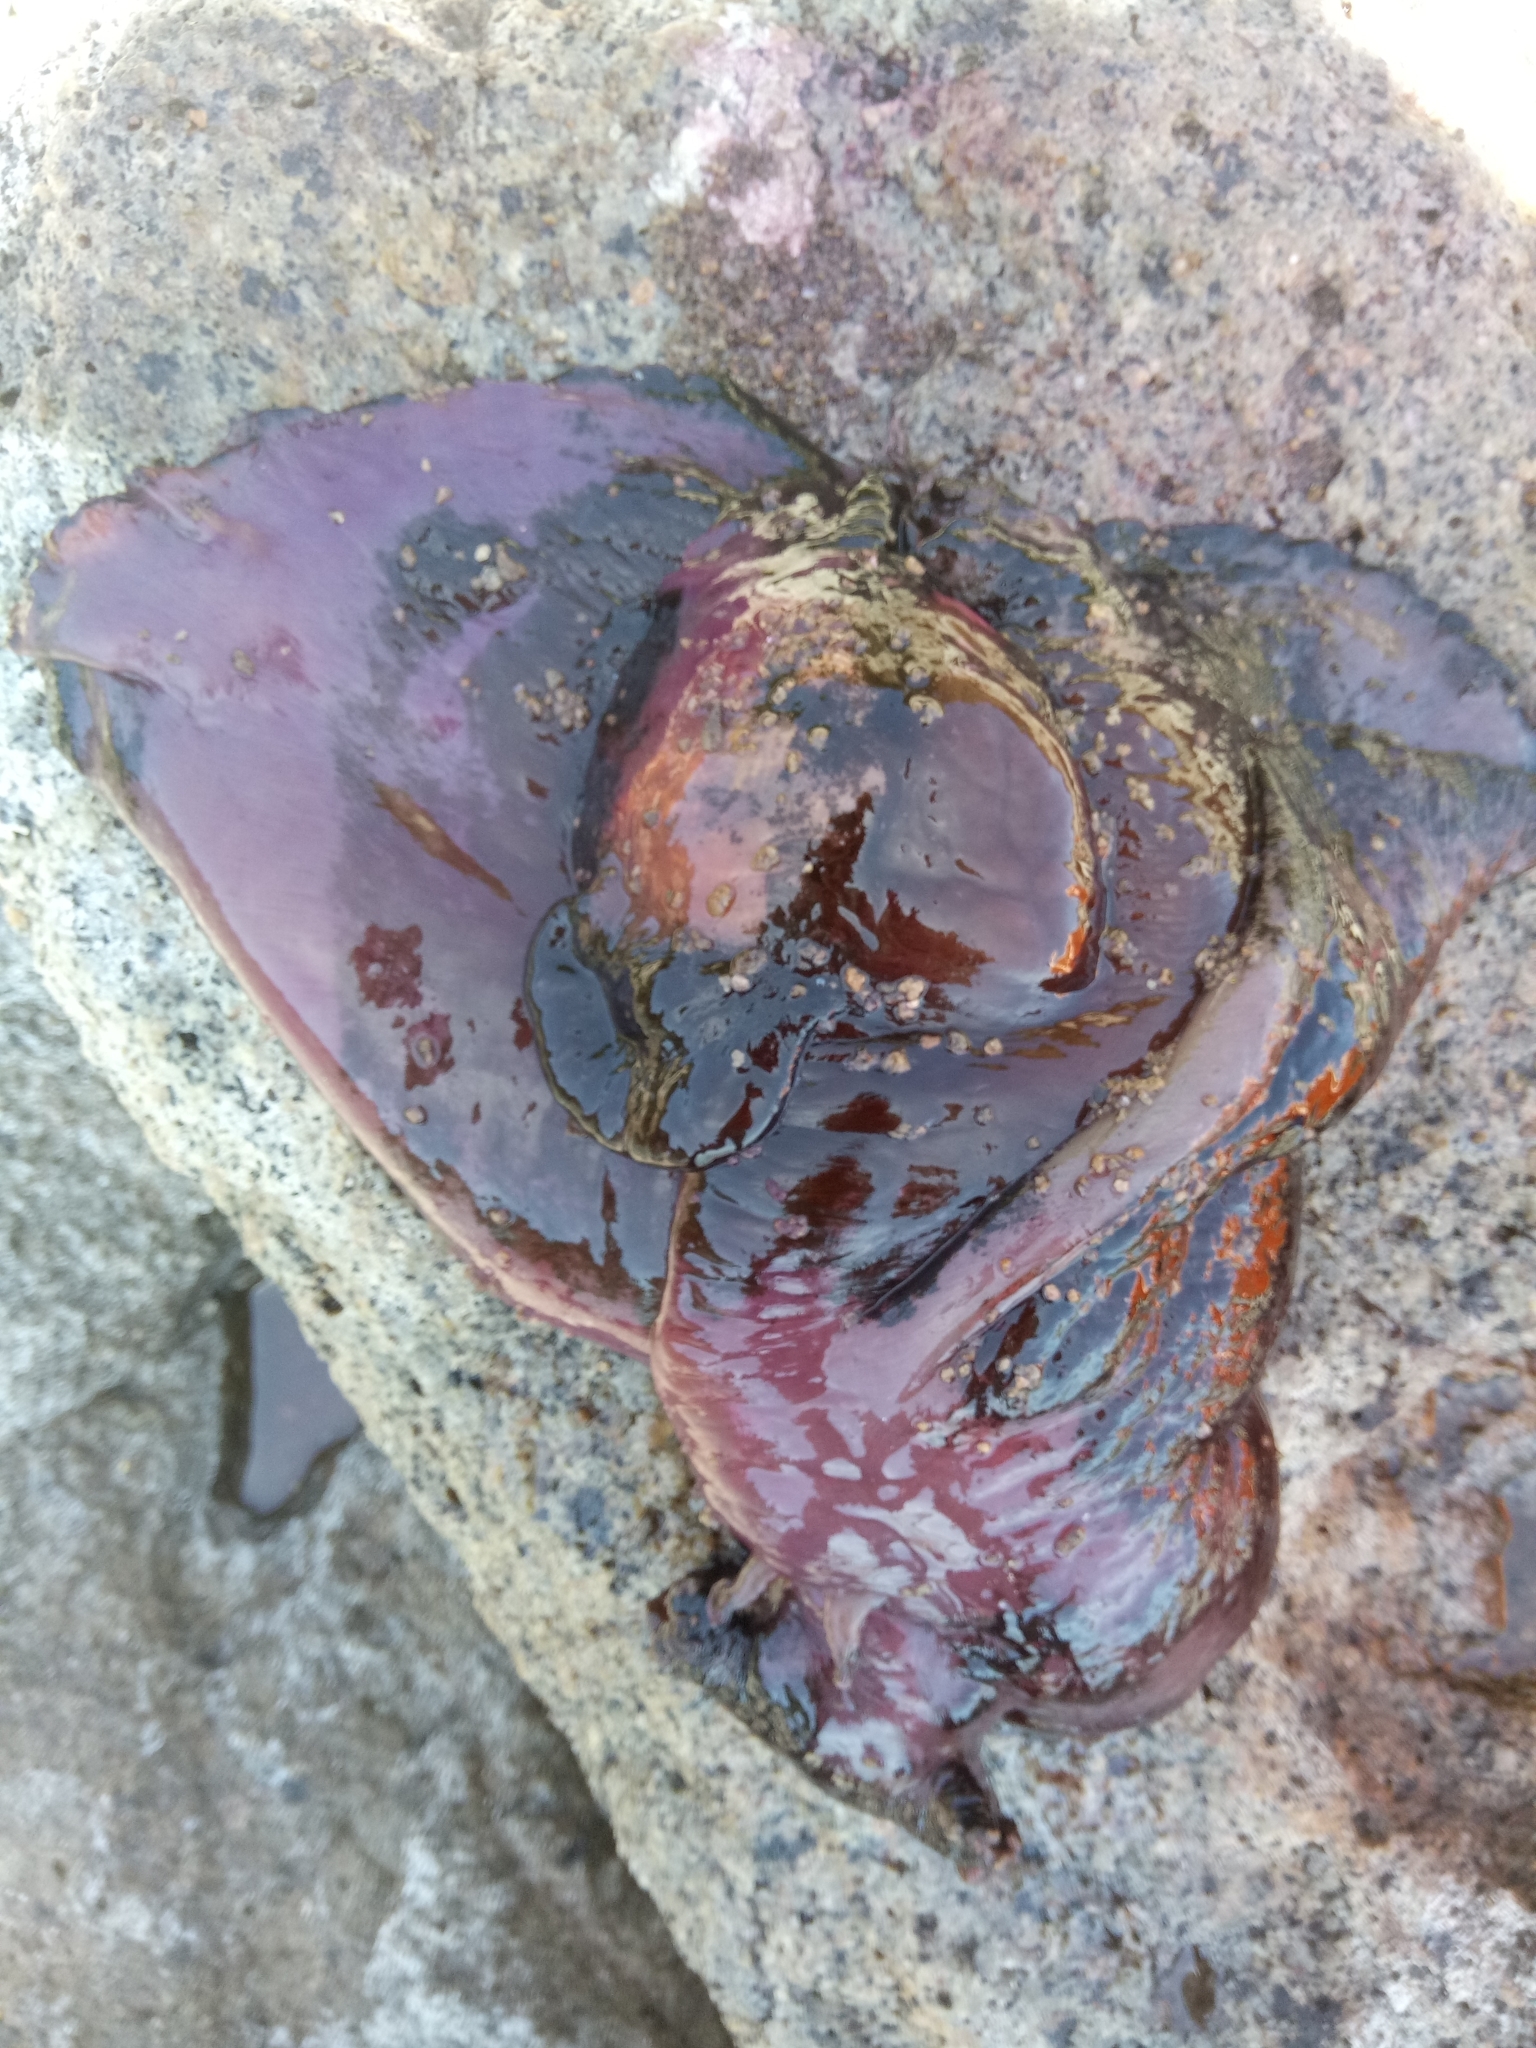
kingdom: Animalia
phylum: Mollusca
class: Gastropoda
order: Aplysiida
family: Aplysiidae
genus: Aplysia
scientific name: Aplysia fasciata
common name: Banded sea hare
